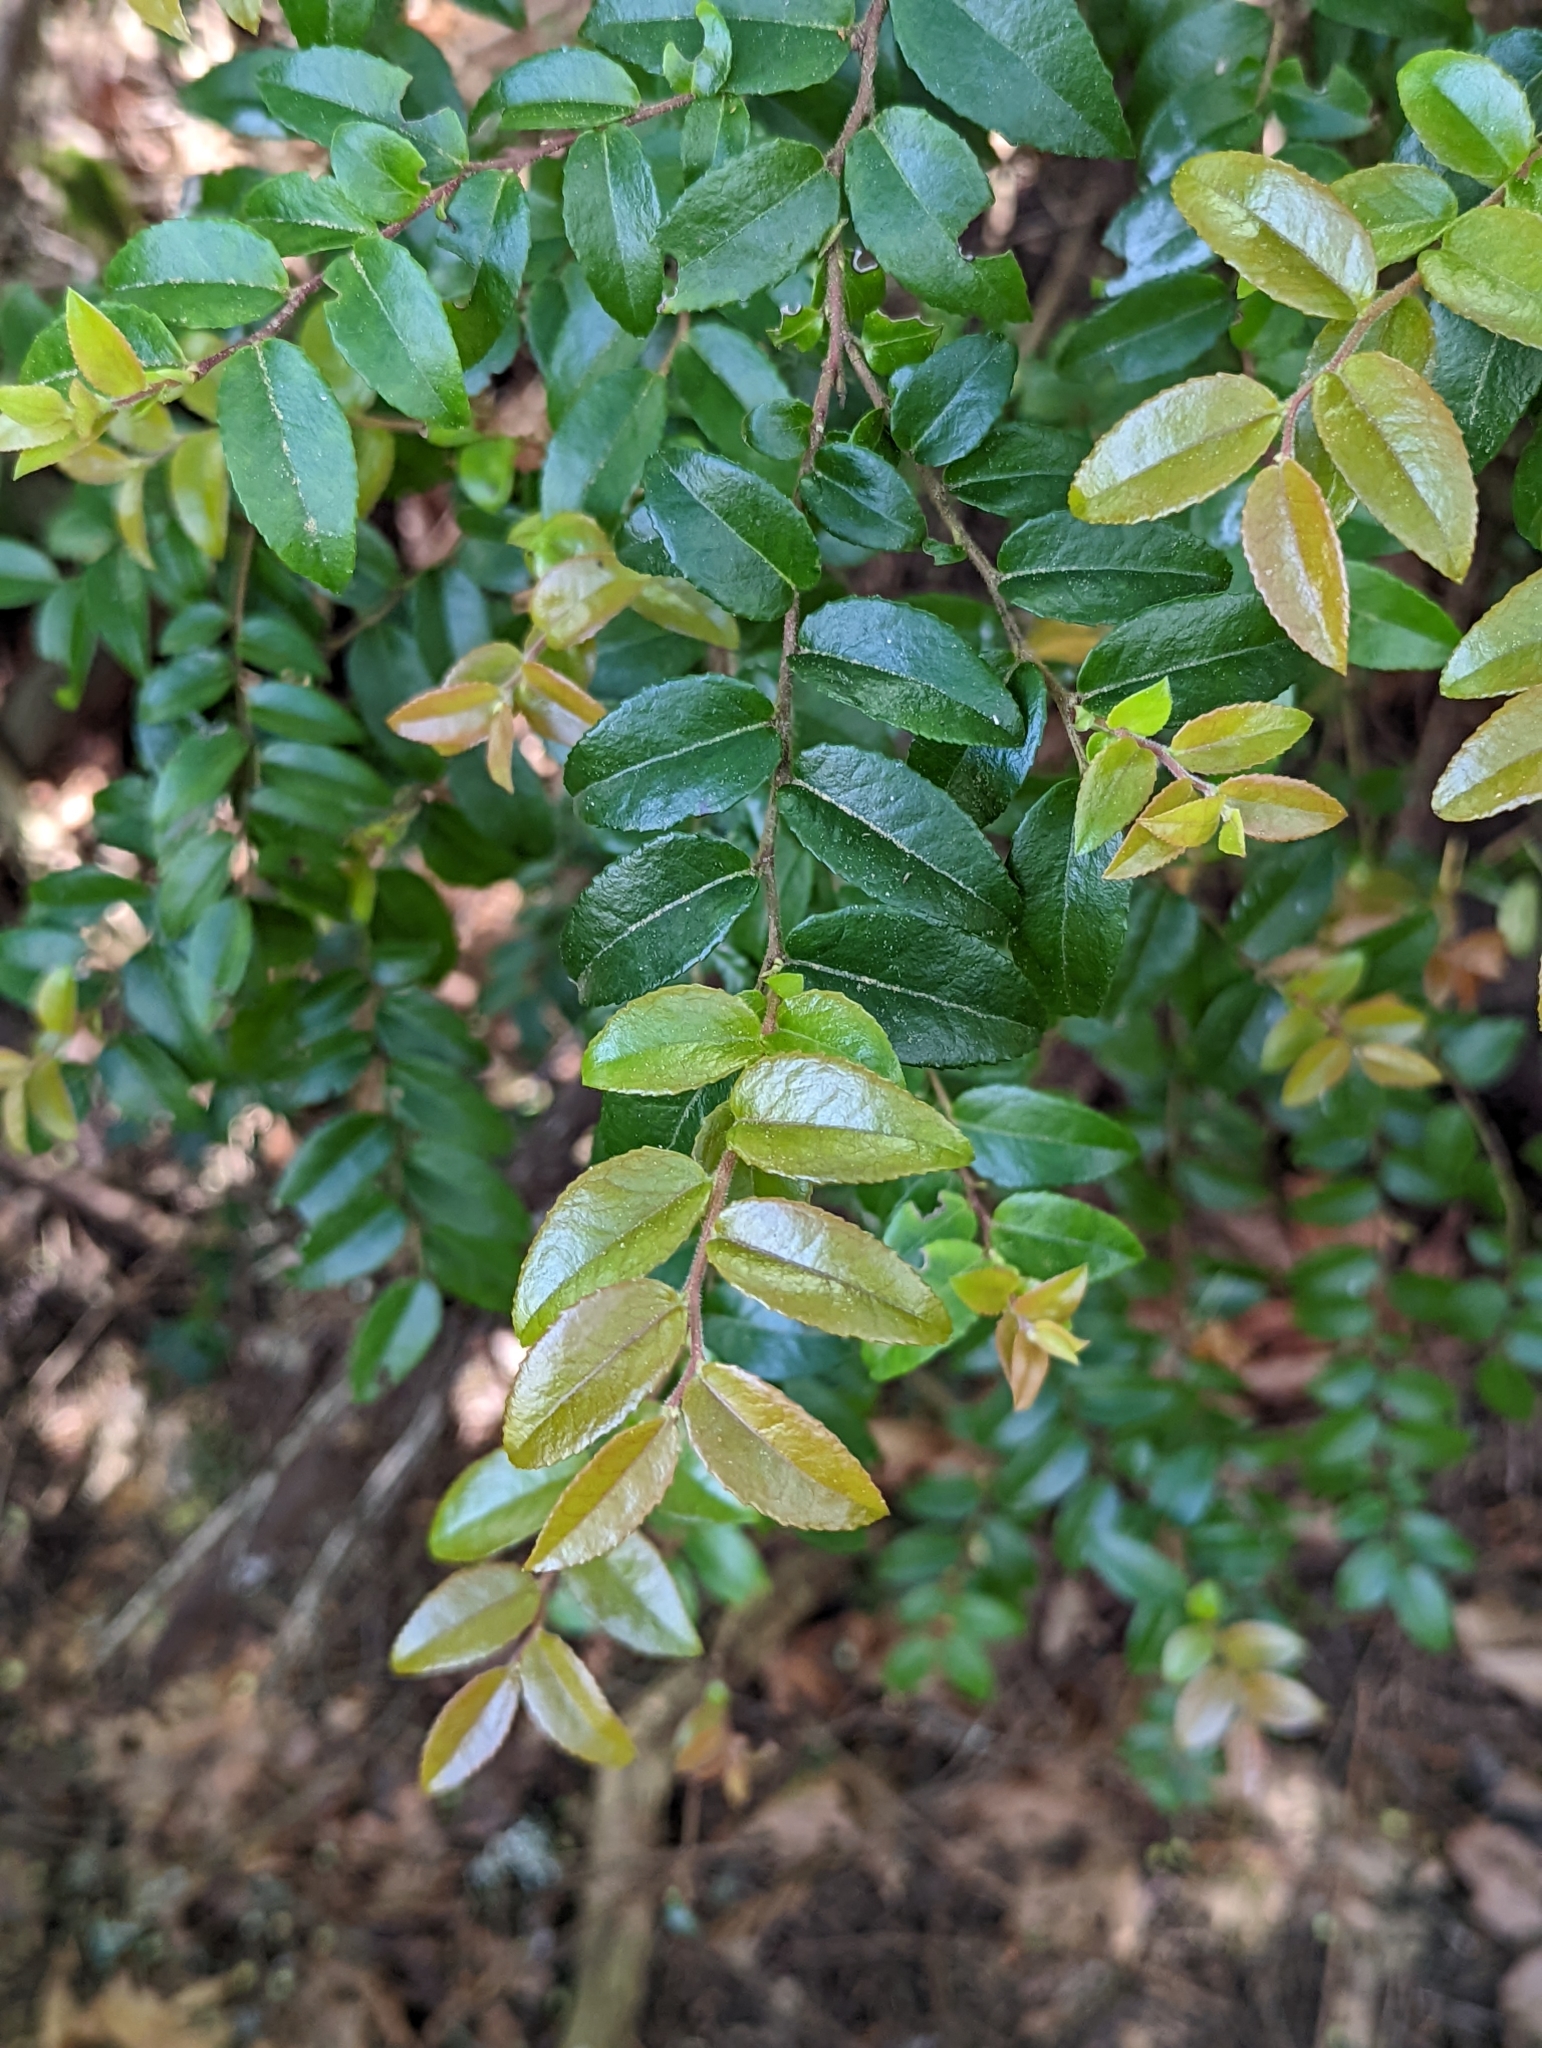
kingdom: Plantae
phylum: Tracheophyta
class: Magnoliopsida
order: Ericales
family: Ericaceae
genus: Vaccinium
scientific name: Vaccinium ovatum
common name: California-huckleberry
